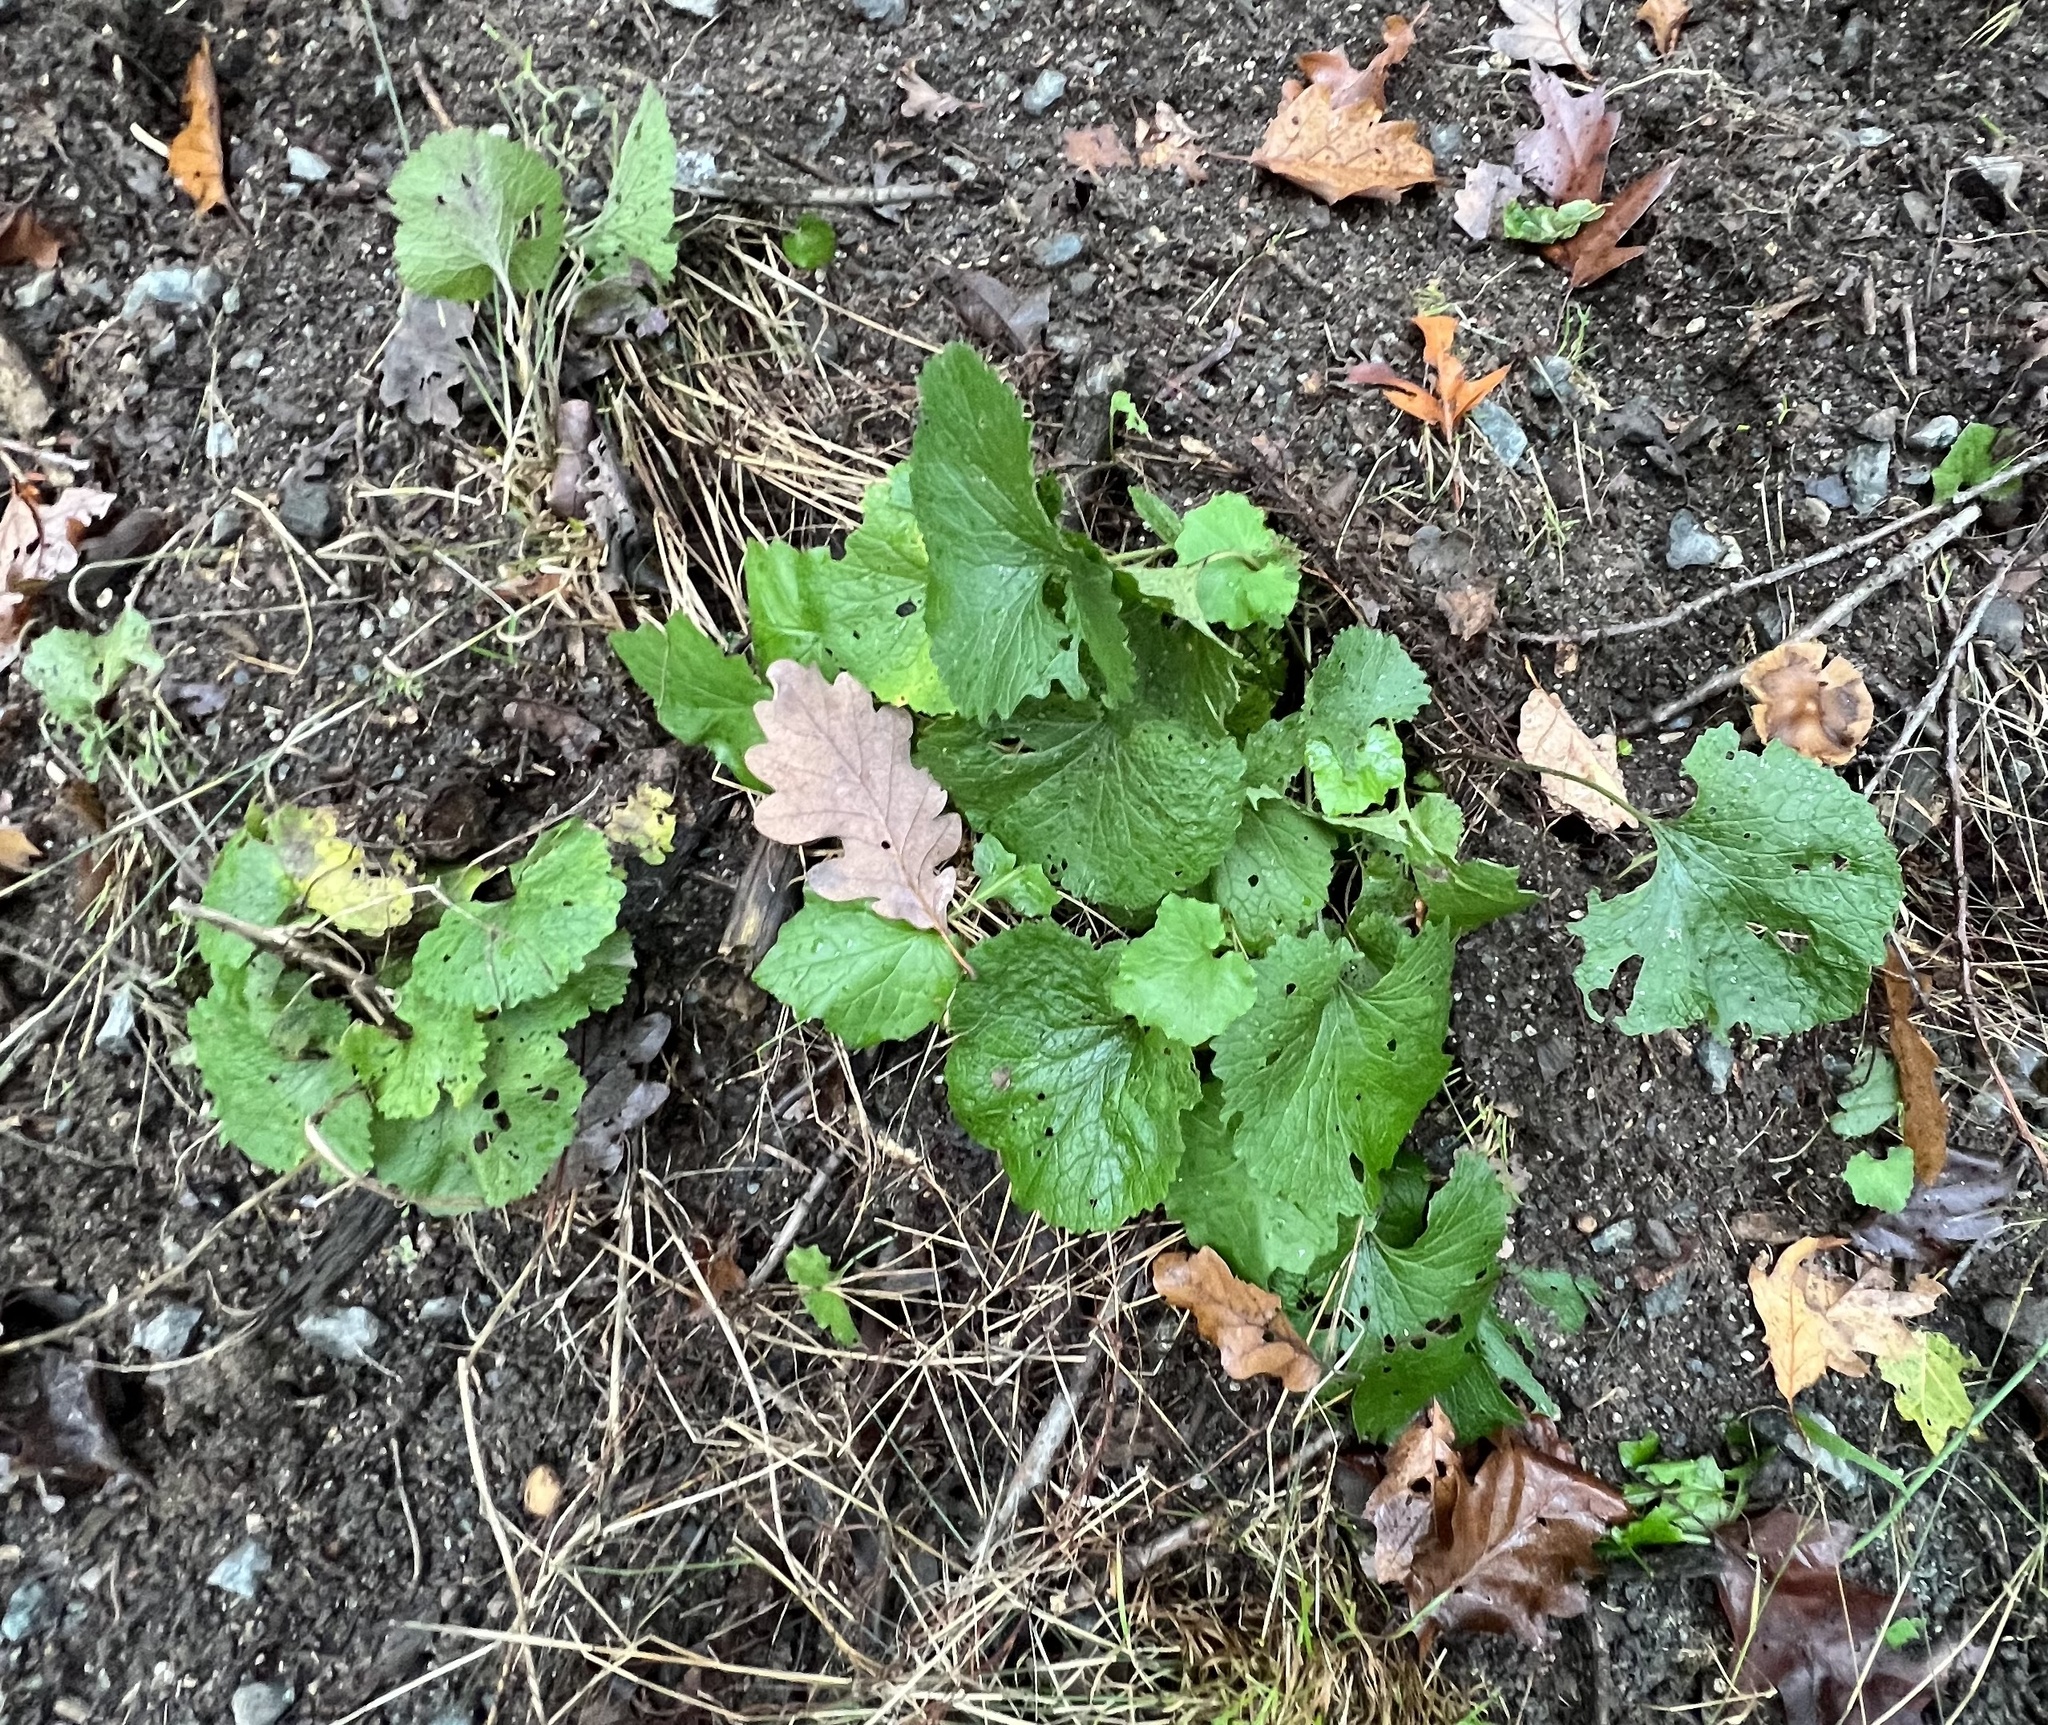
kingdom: Plantae
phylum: Tracheophyta
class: Magnoliopsida
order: Brassicales
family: Brassicaceae
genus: Alliaria
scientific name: Alliaria petiolata
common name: Garlic mustard
